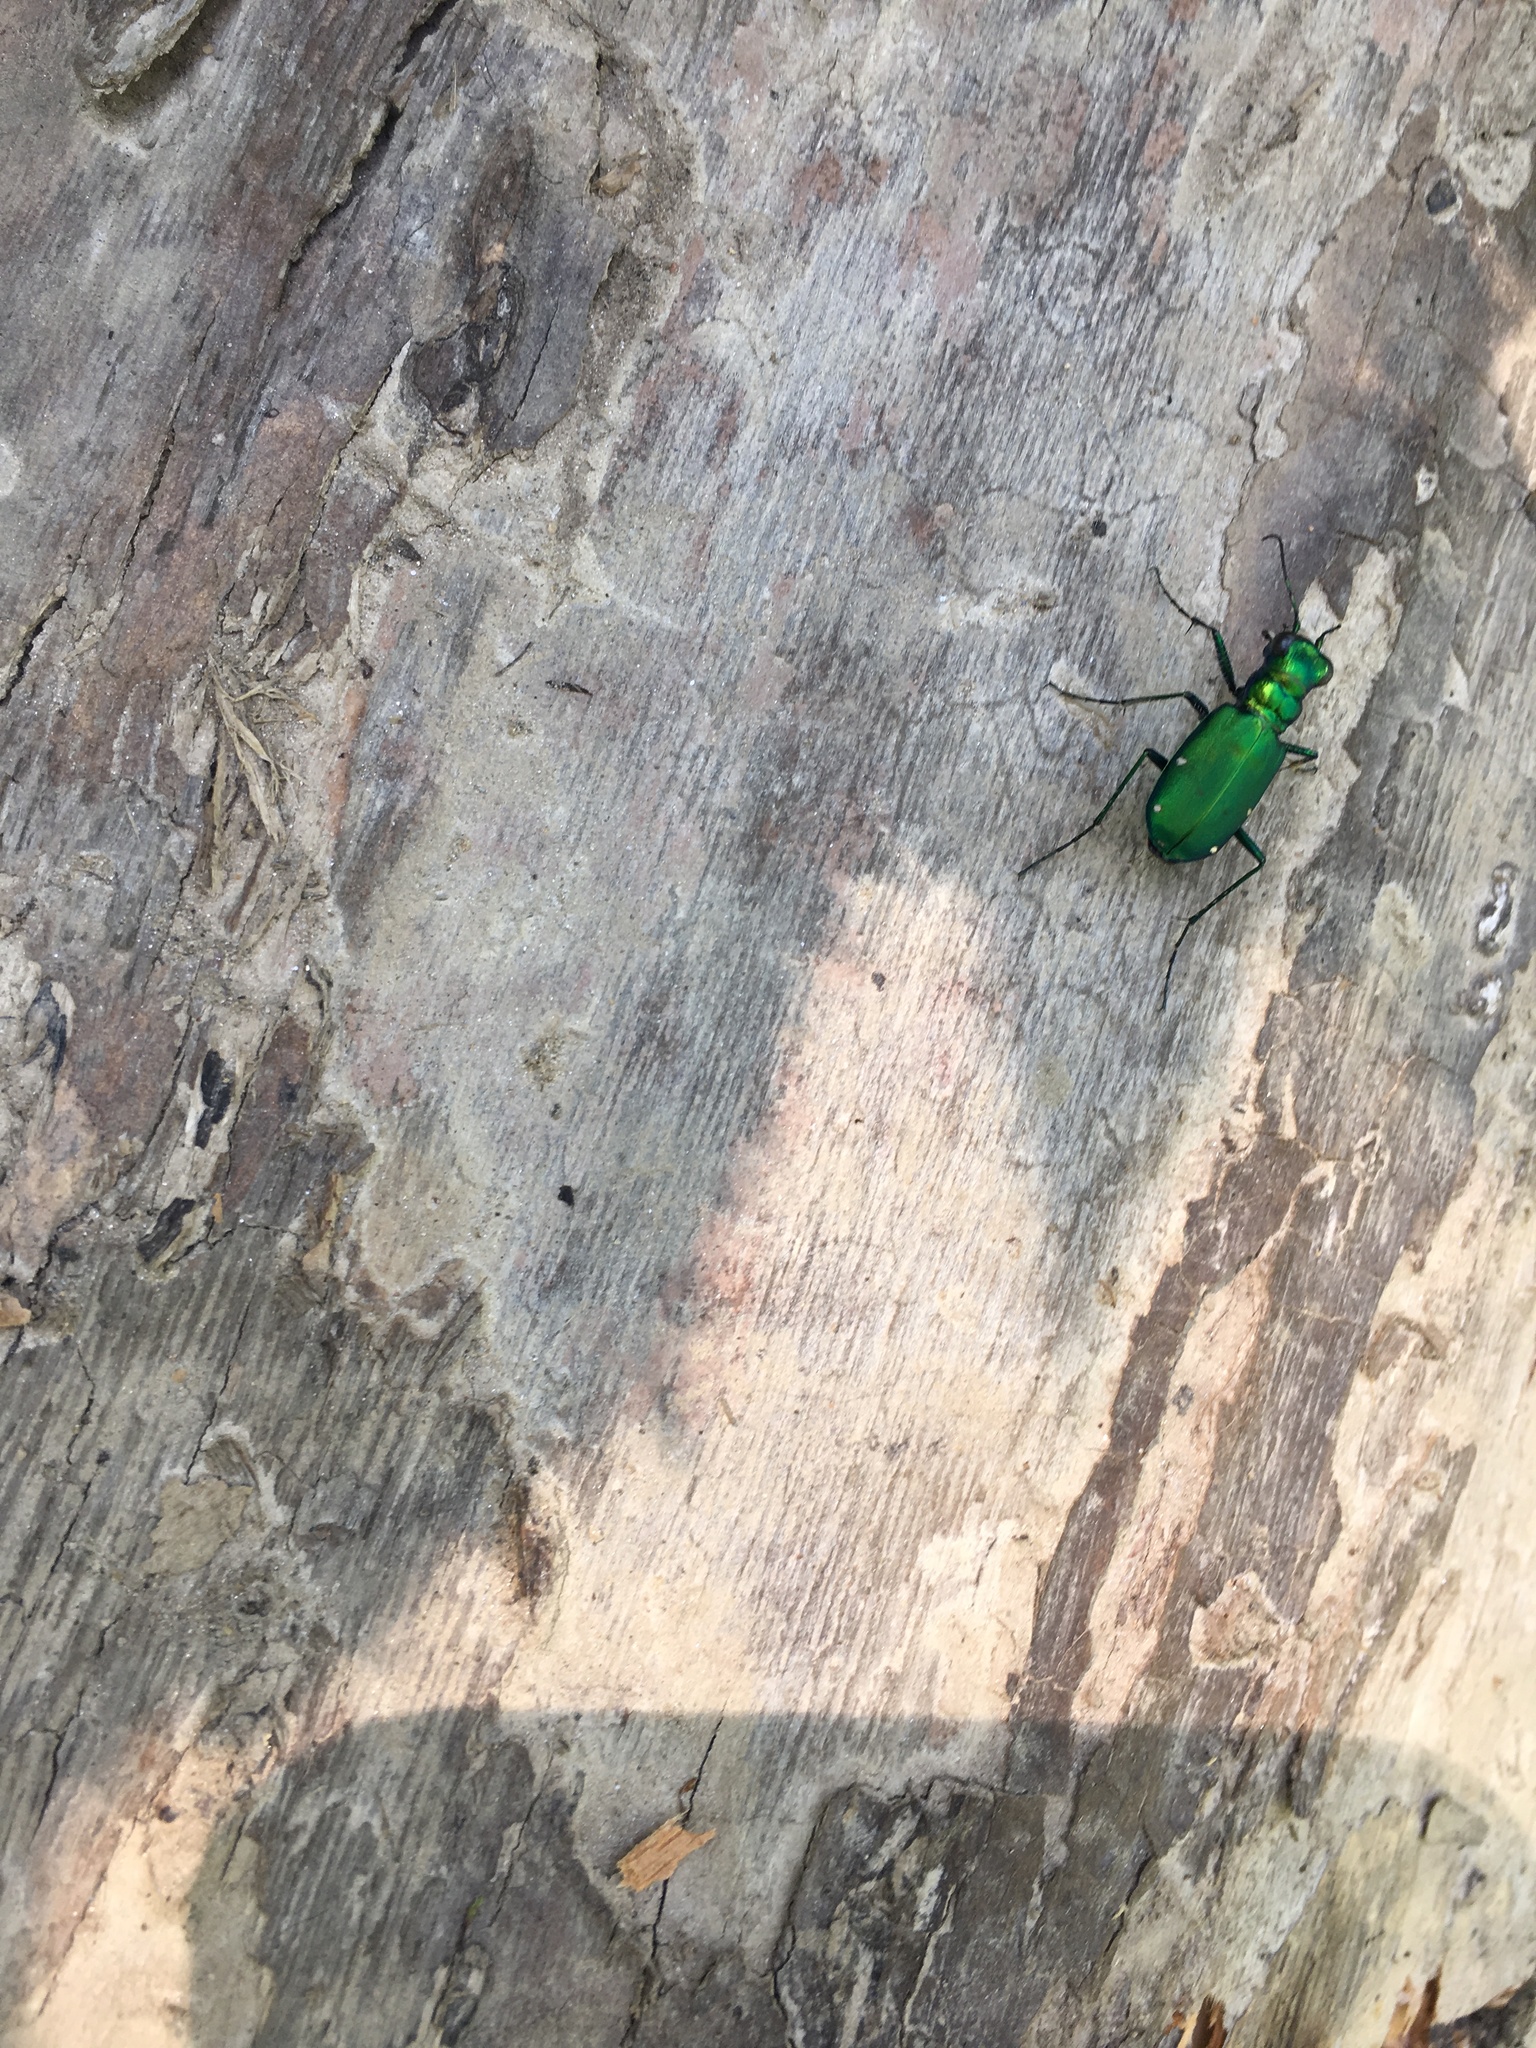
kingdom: Animalia
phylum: Arthropoda
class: Insecta
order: Coleoptera
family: Carabidae
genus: Cicindela
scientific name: Cicindela sexguttata
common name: Six-spotted tiger beetle
